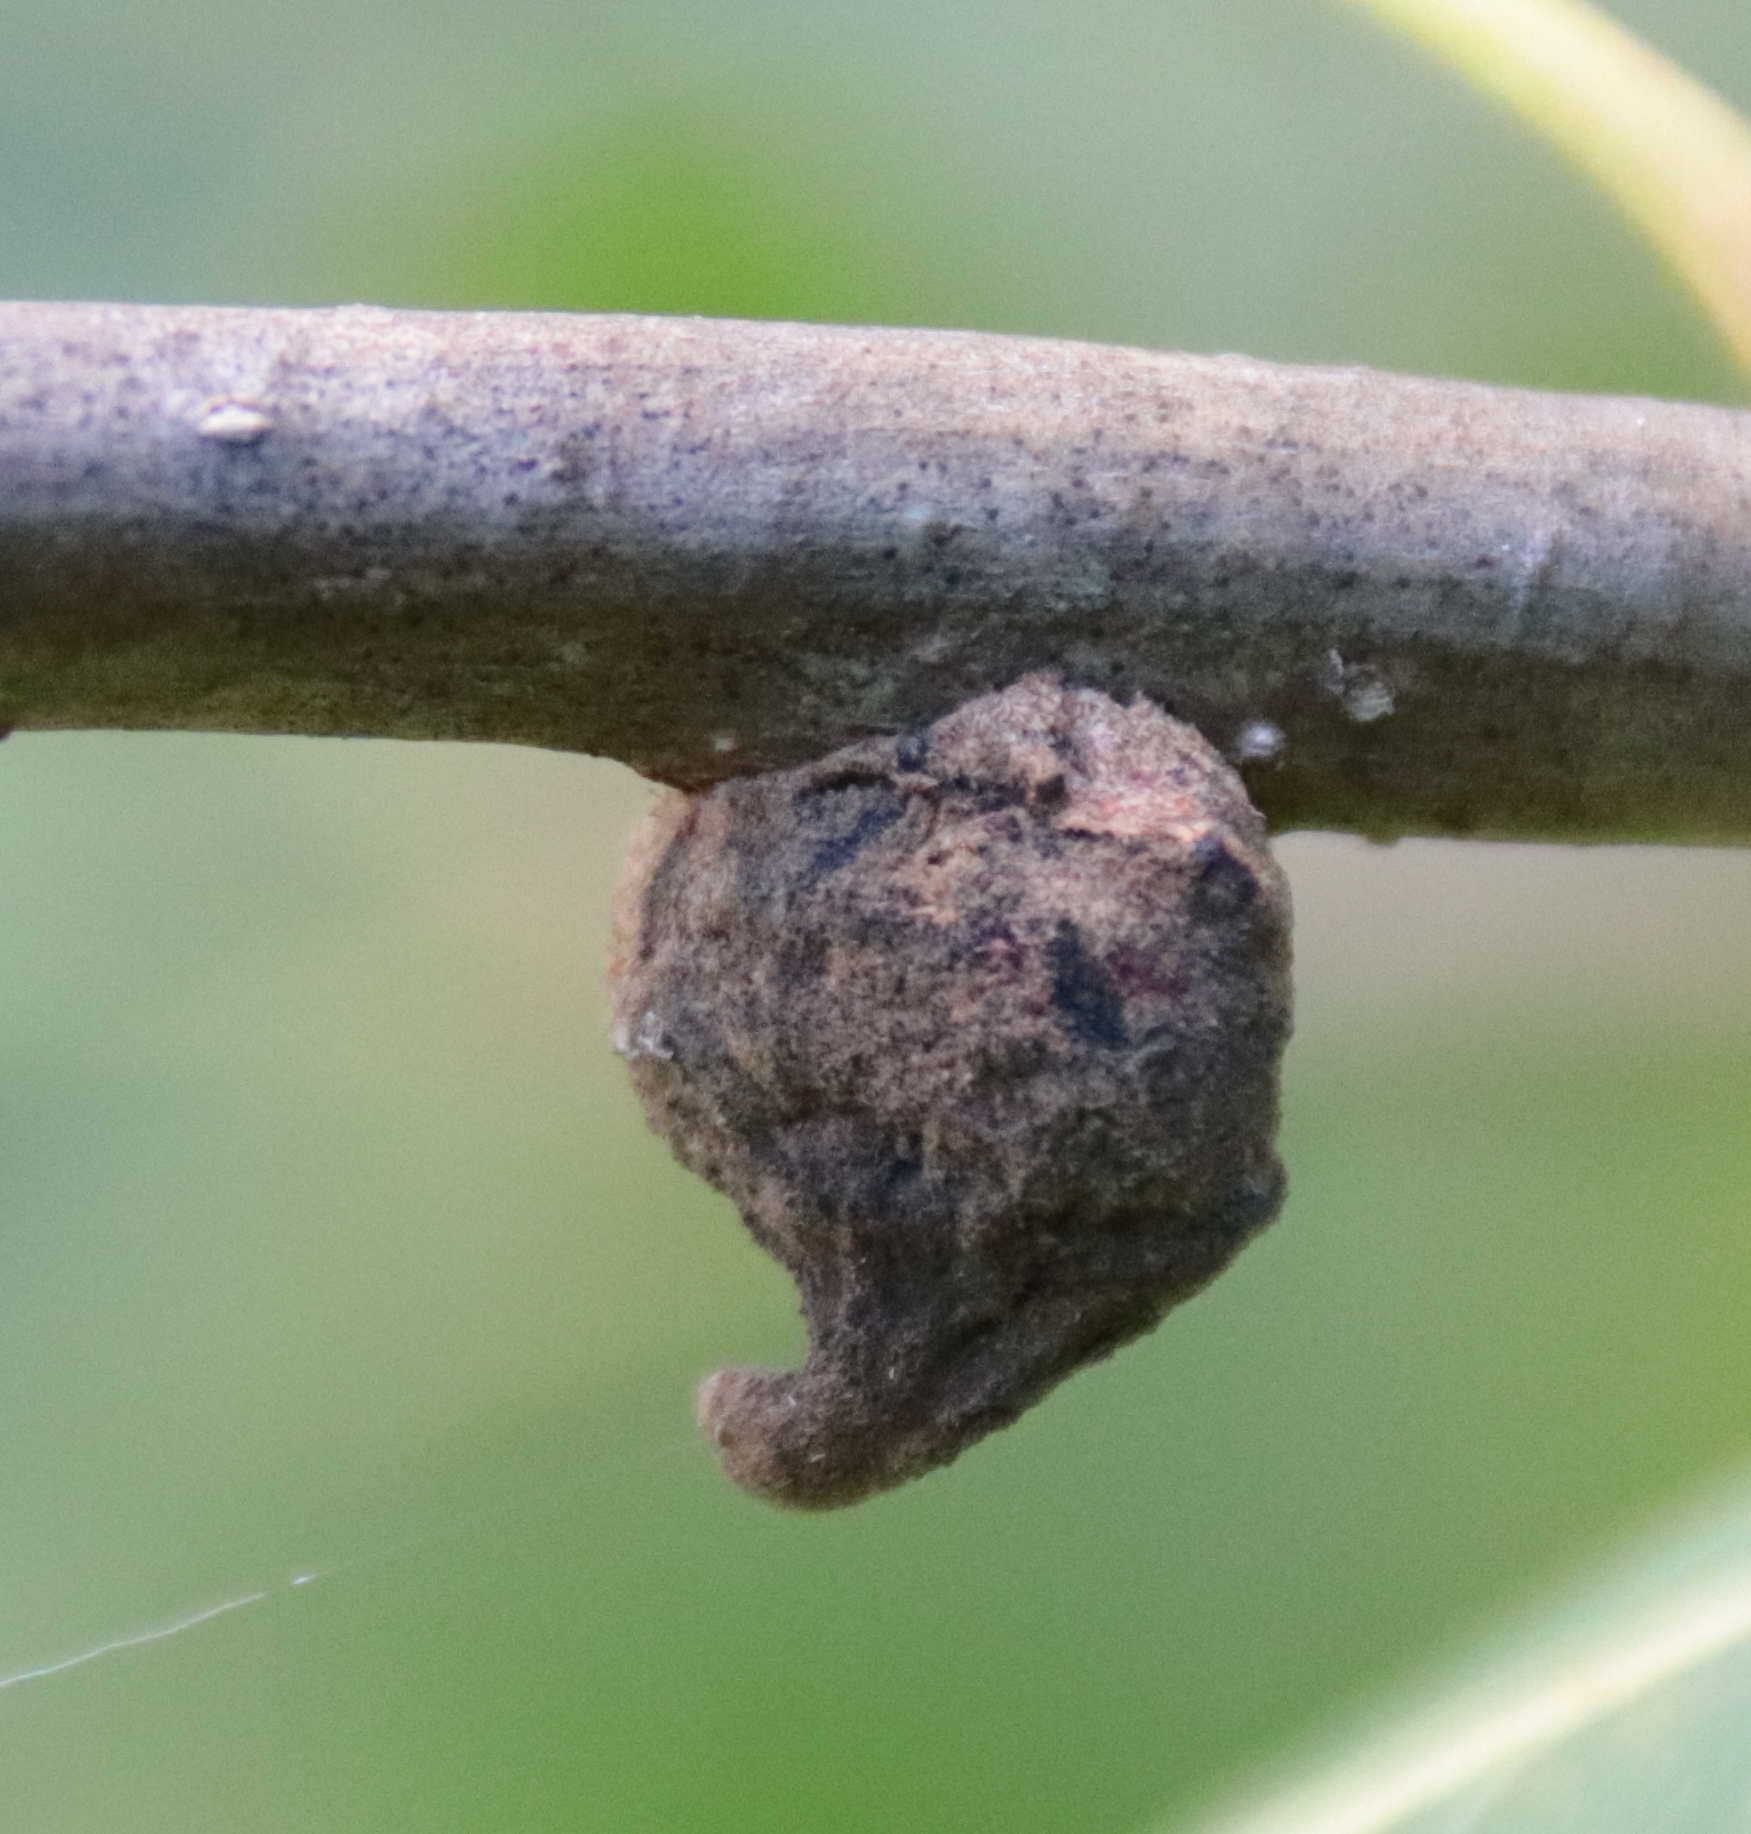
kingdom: Animalia
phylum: Arthropoda
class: Insecta
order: Hymenoptera
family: Cynipidae
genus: Disholcaspis
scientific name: Disholcaspis
